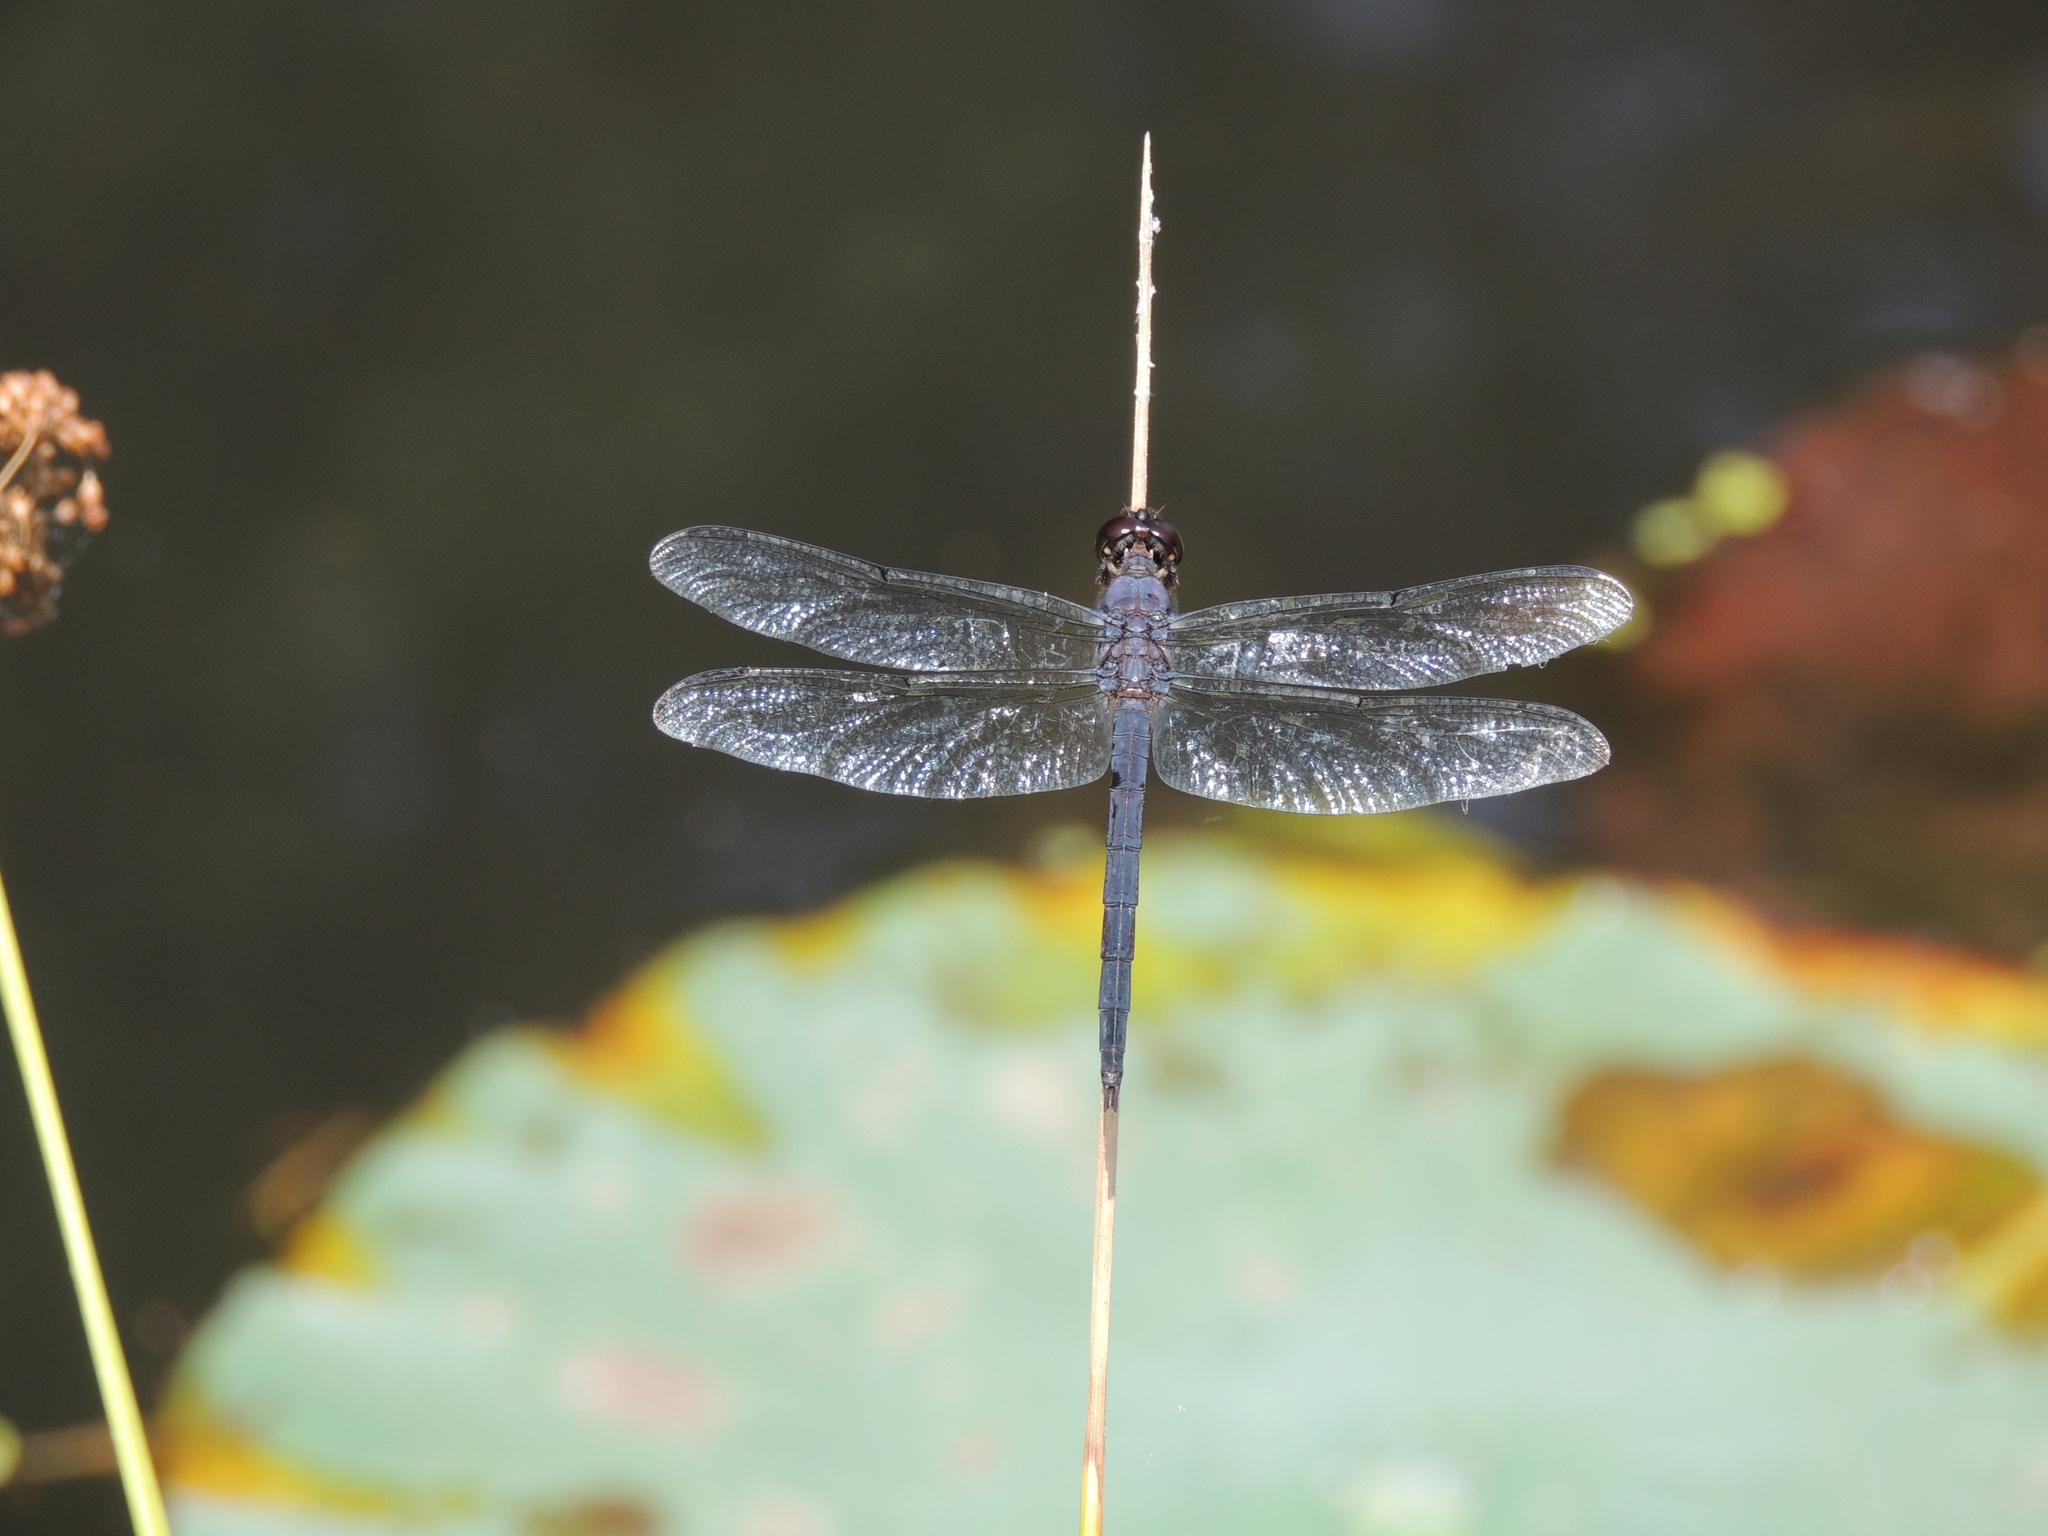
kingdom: Animalia
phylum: Arthropoda
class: Insecta
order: Odonata
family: Libellulidae
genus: Libellula
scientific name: Libellula incesta
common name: Slaty skimmer
